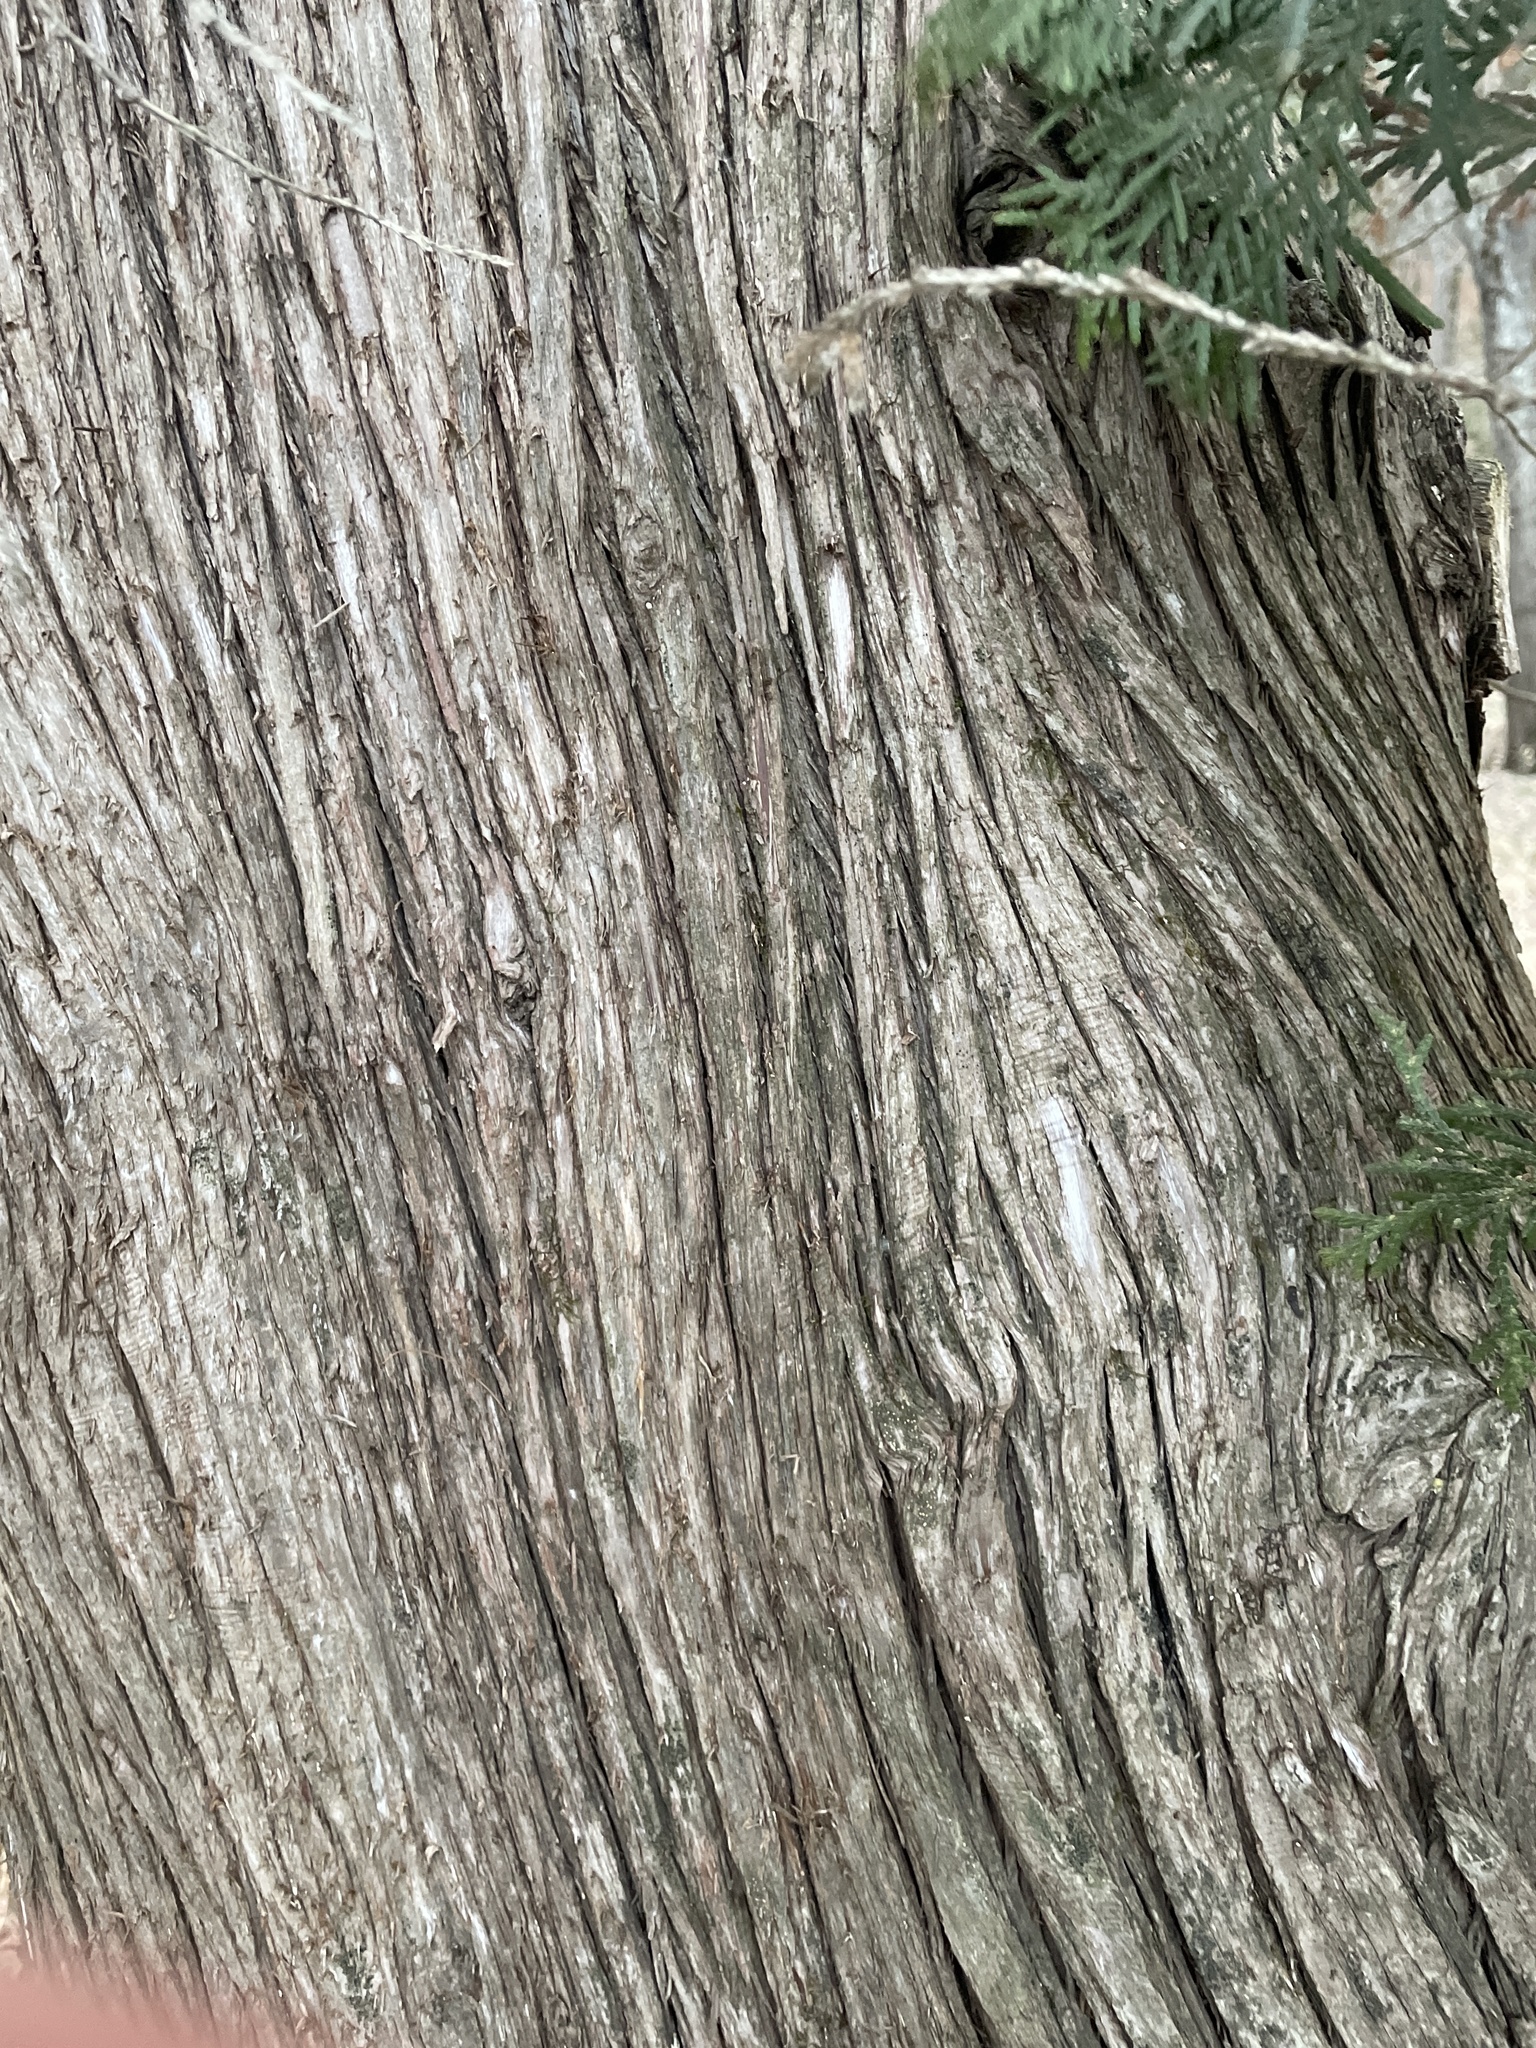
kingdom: Plantae
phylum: Tracheophyta
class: Pinopsida
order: Pinales
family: Cupressaceae
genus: Thuja
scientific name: Thuja occidentalis
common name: Northern white-cedar
